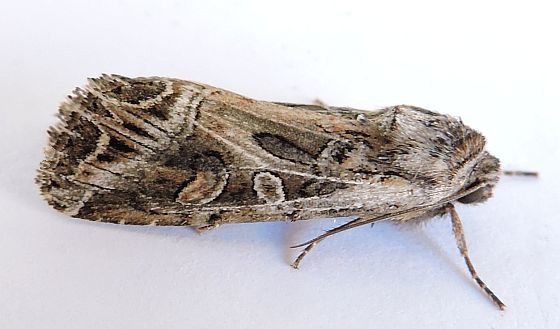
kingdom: Animalia
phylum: Arthropoda
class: Insecta
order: Lepidoptera
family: Noctuidae
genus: Euxoa
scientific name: Euxoa auxiliaris
